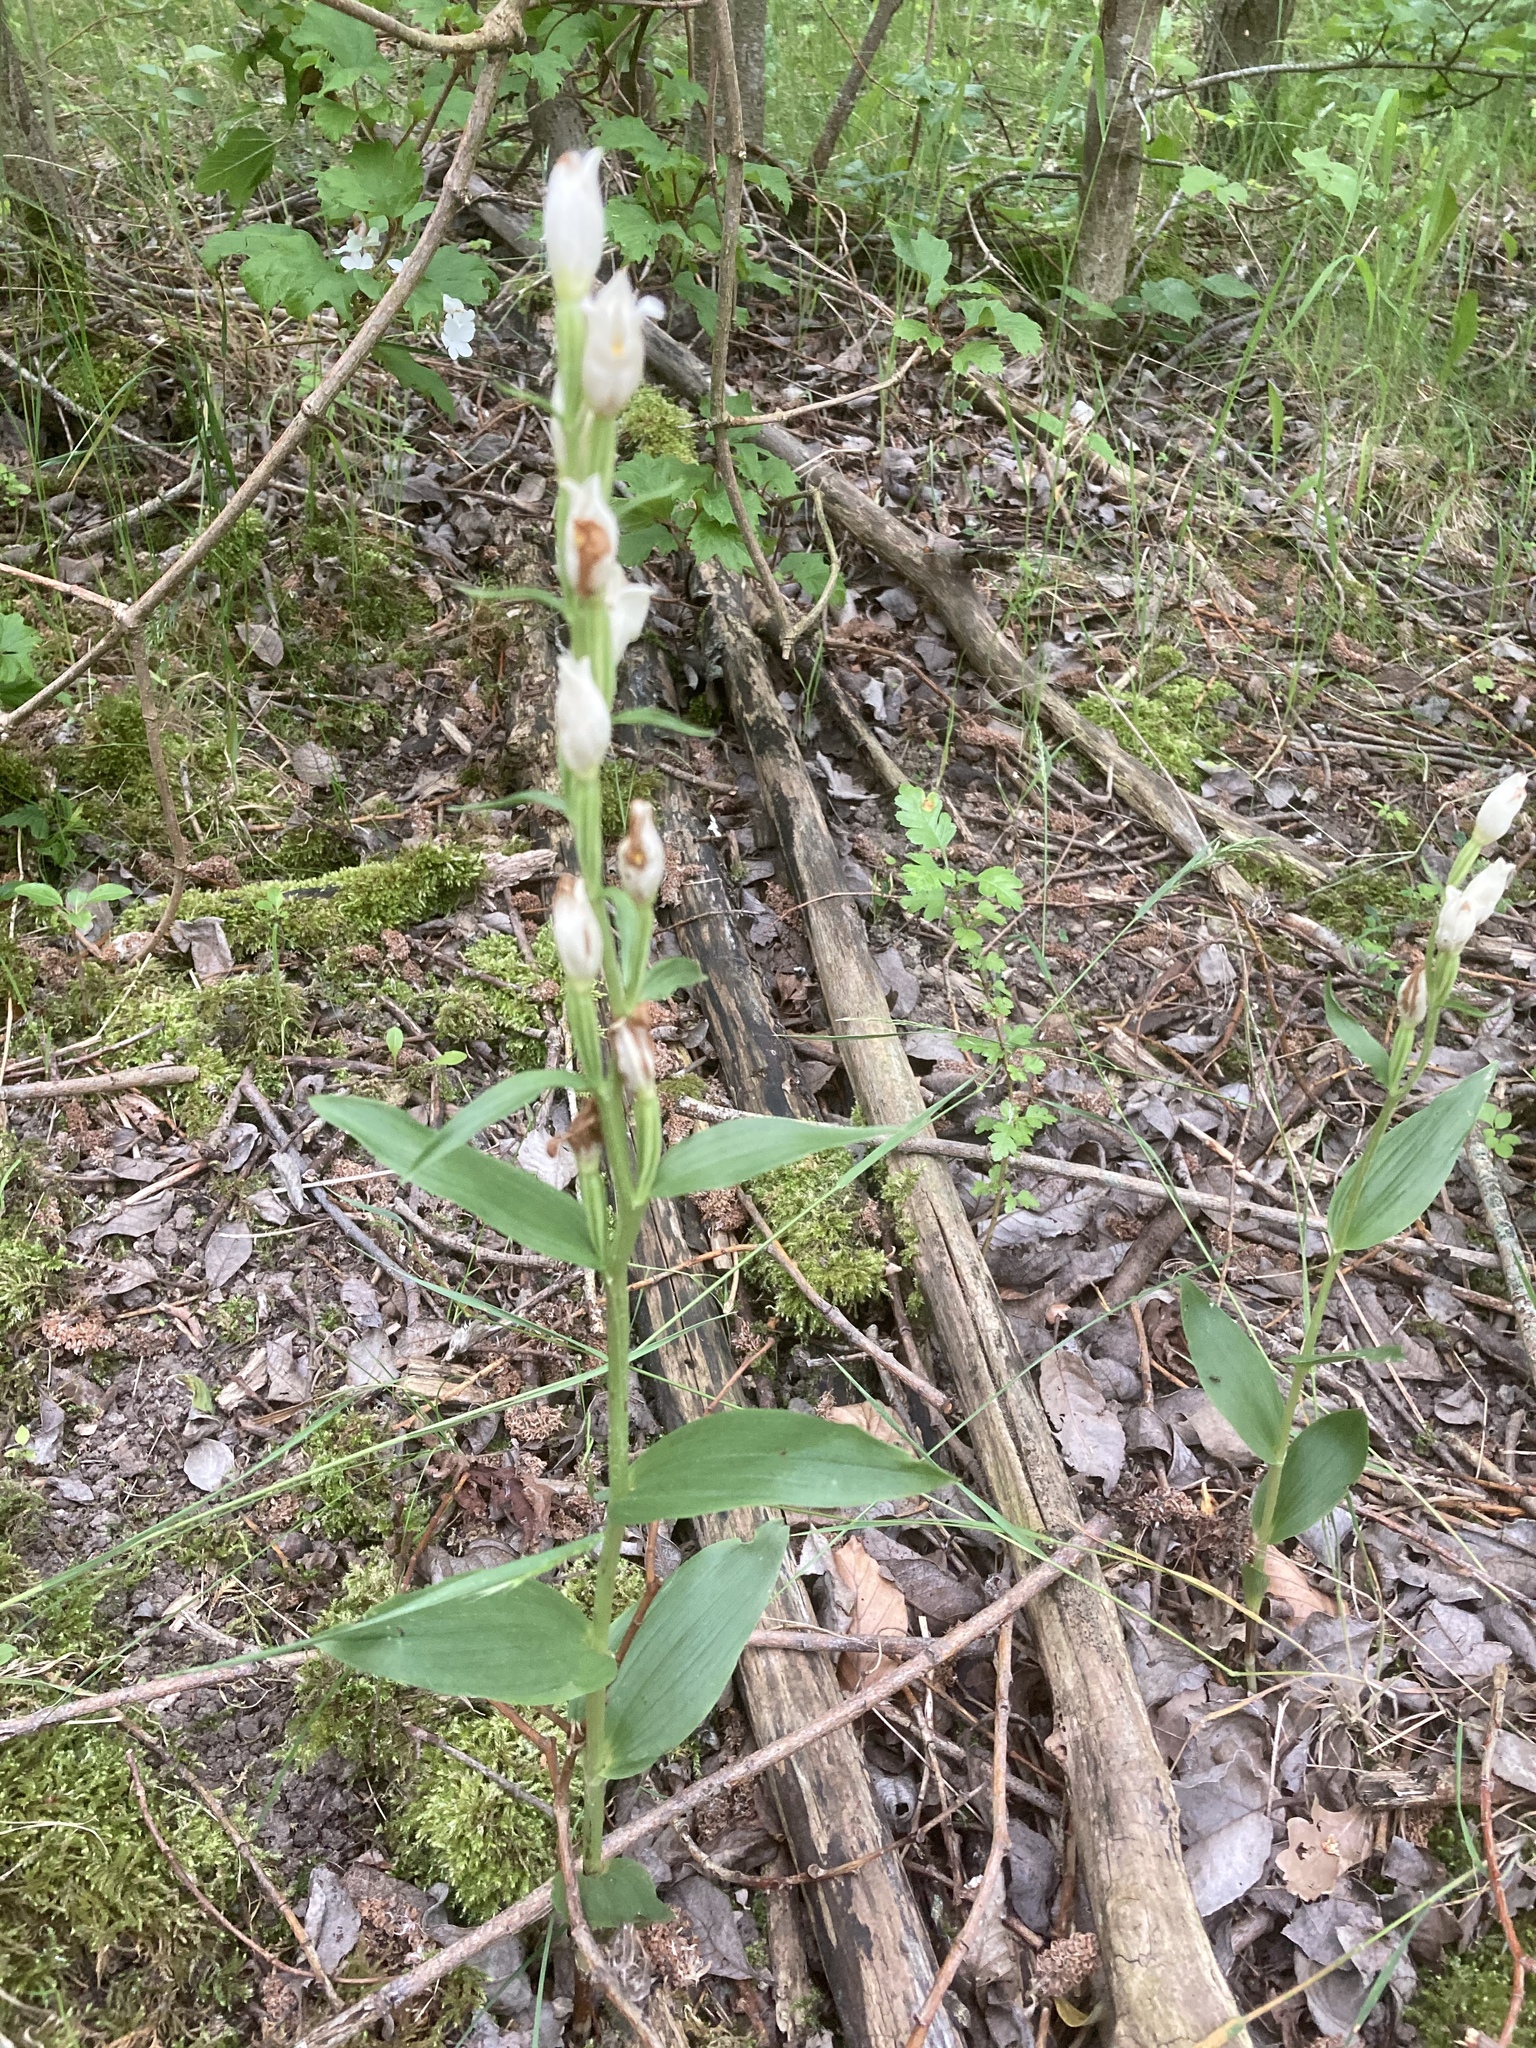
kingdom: Plantae
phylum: Tracheophyta
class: Liliopsida
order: Asparagales
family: Orchidaceae
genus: Cephalanthera
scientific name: Cephalanthera damasonium
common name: White helleborine
